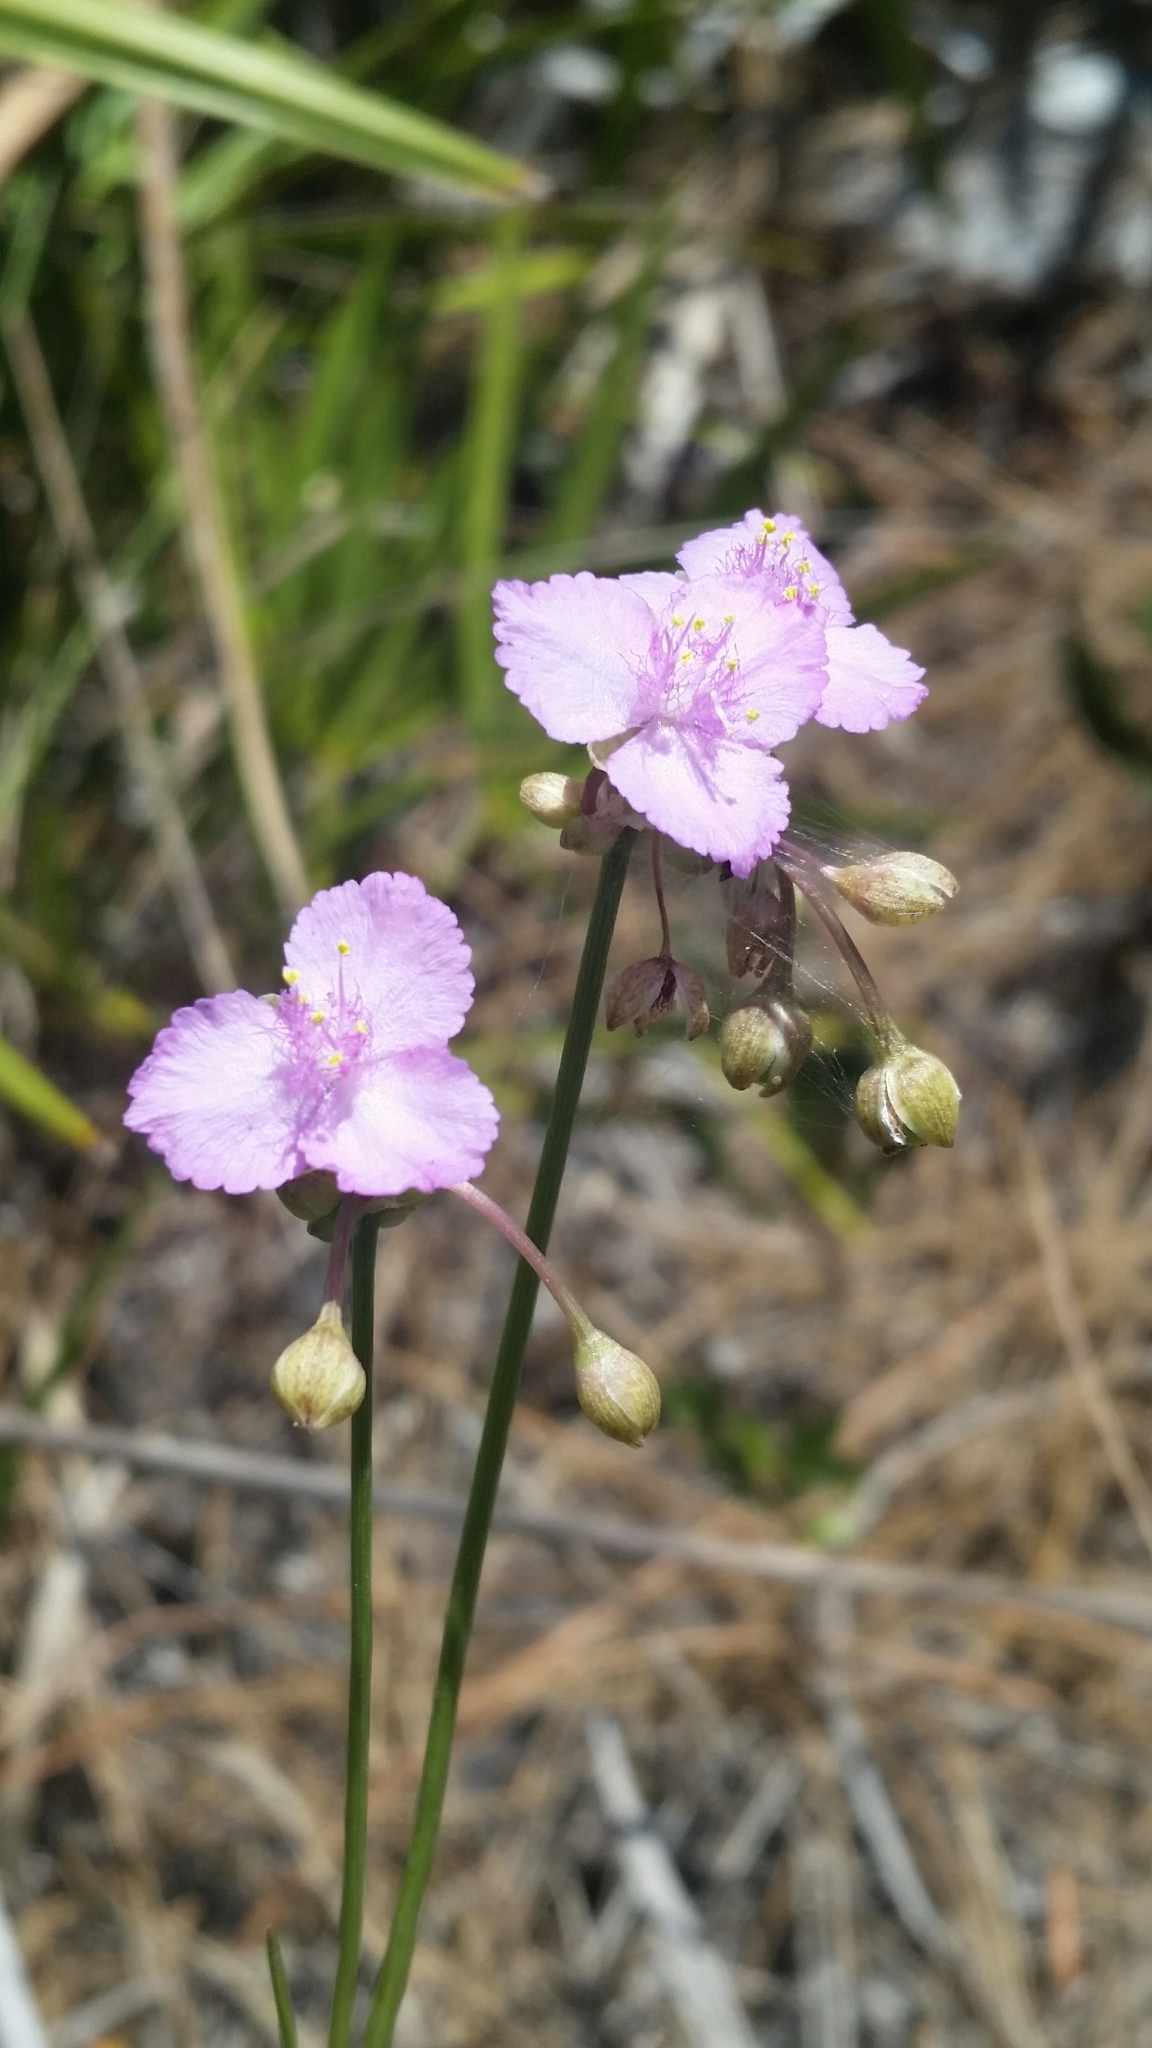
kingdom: Plantae
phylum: Tracheophyta
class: Liliopsida
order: Commelinales
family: Commelinaceae
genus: Callisia
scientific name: Callisia ornata
